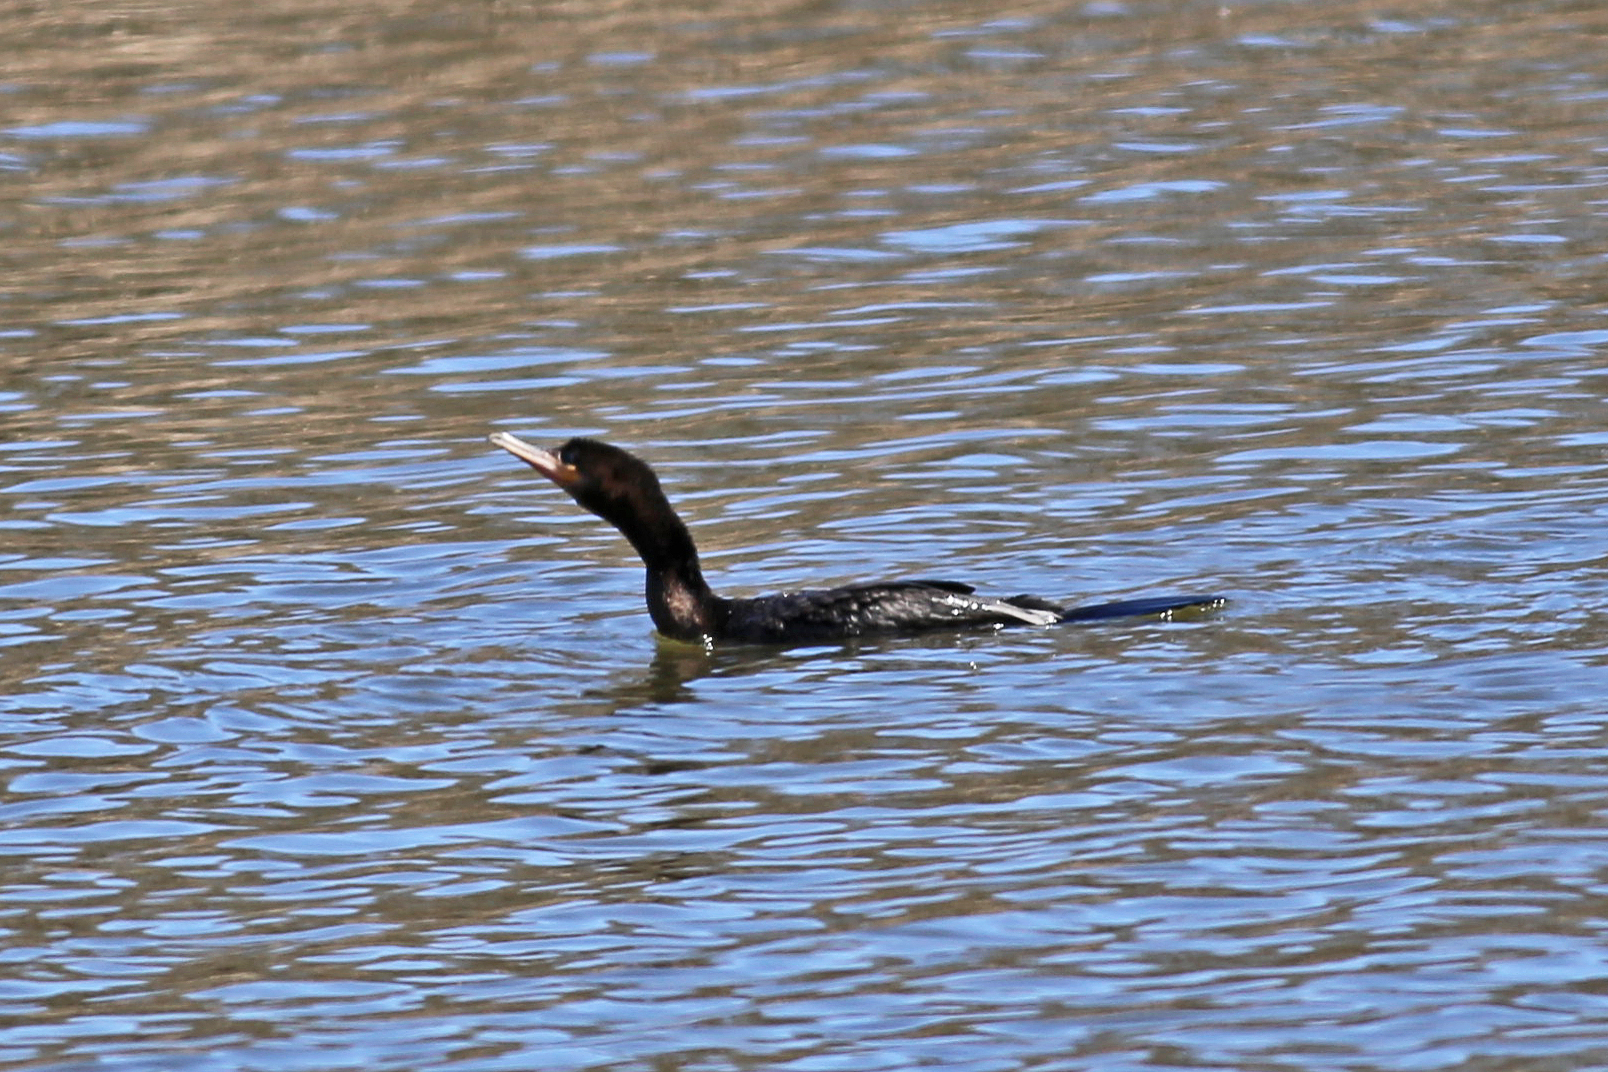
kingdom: Animalia
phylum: Chordata
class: Aves
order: Suliformes
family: Phalacrocoracidae
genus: Phalacrocorax
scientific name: Phalacrocorax brasilianus
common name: Neotropic cormorant
